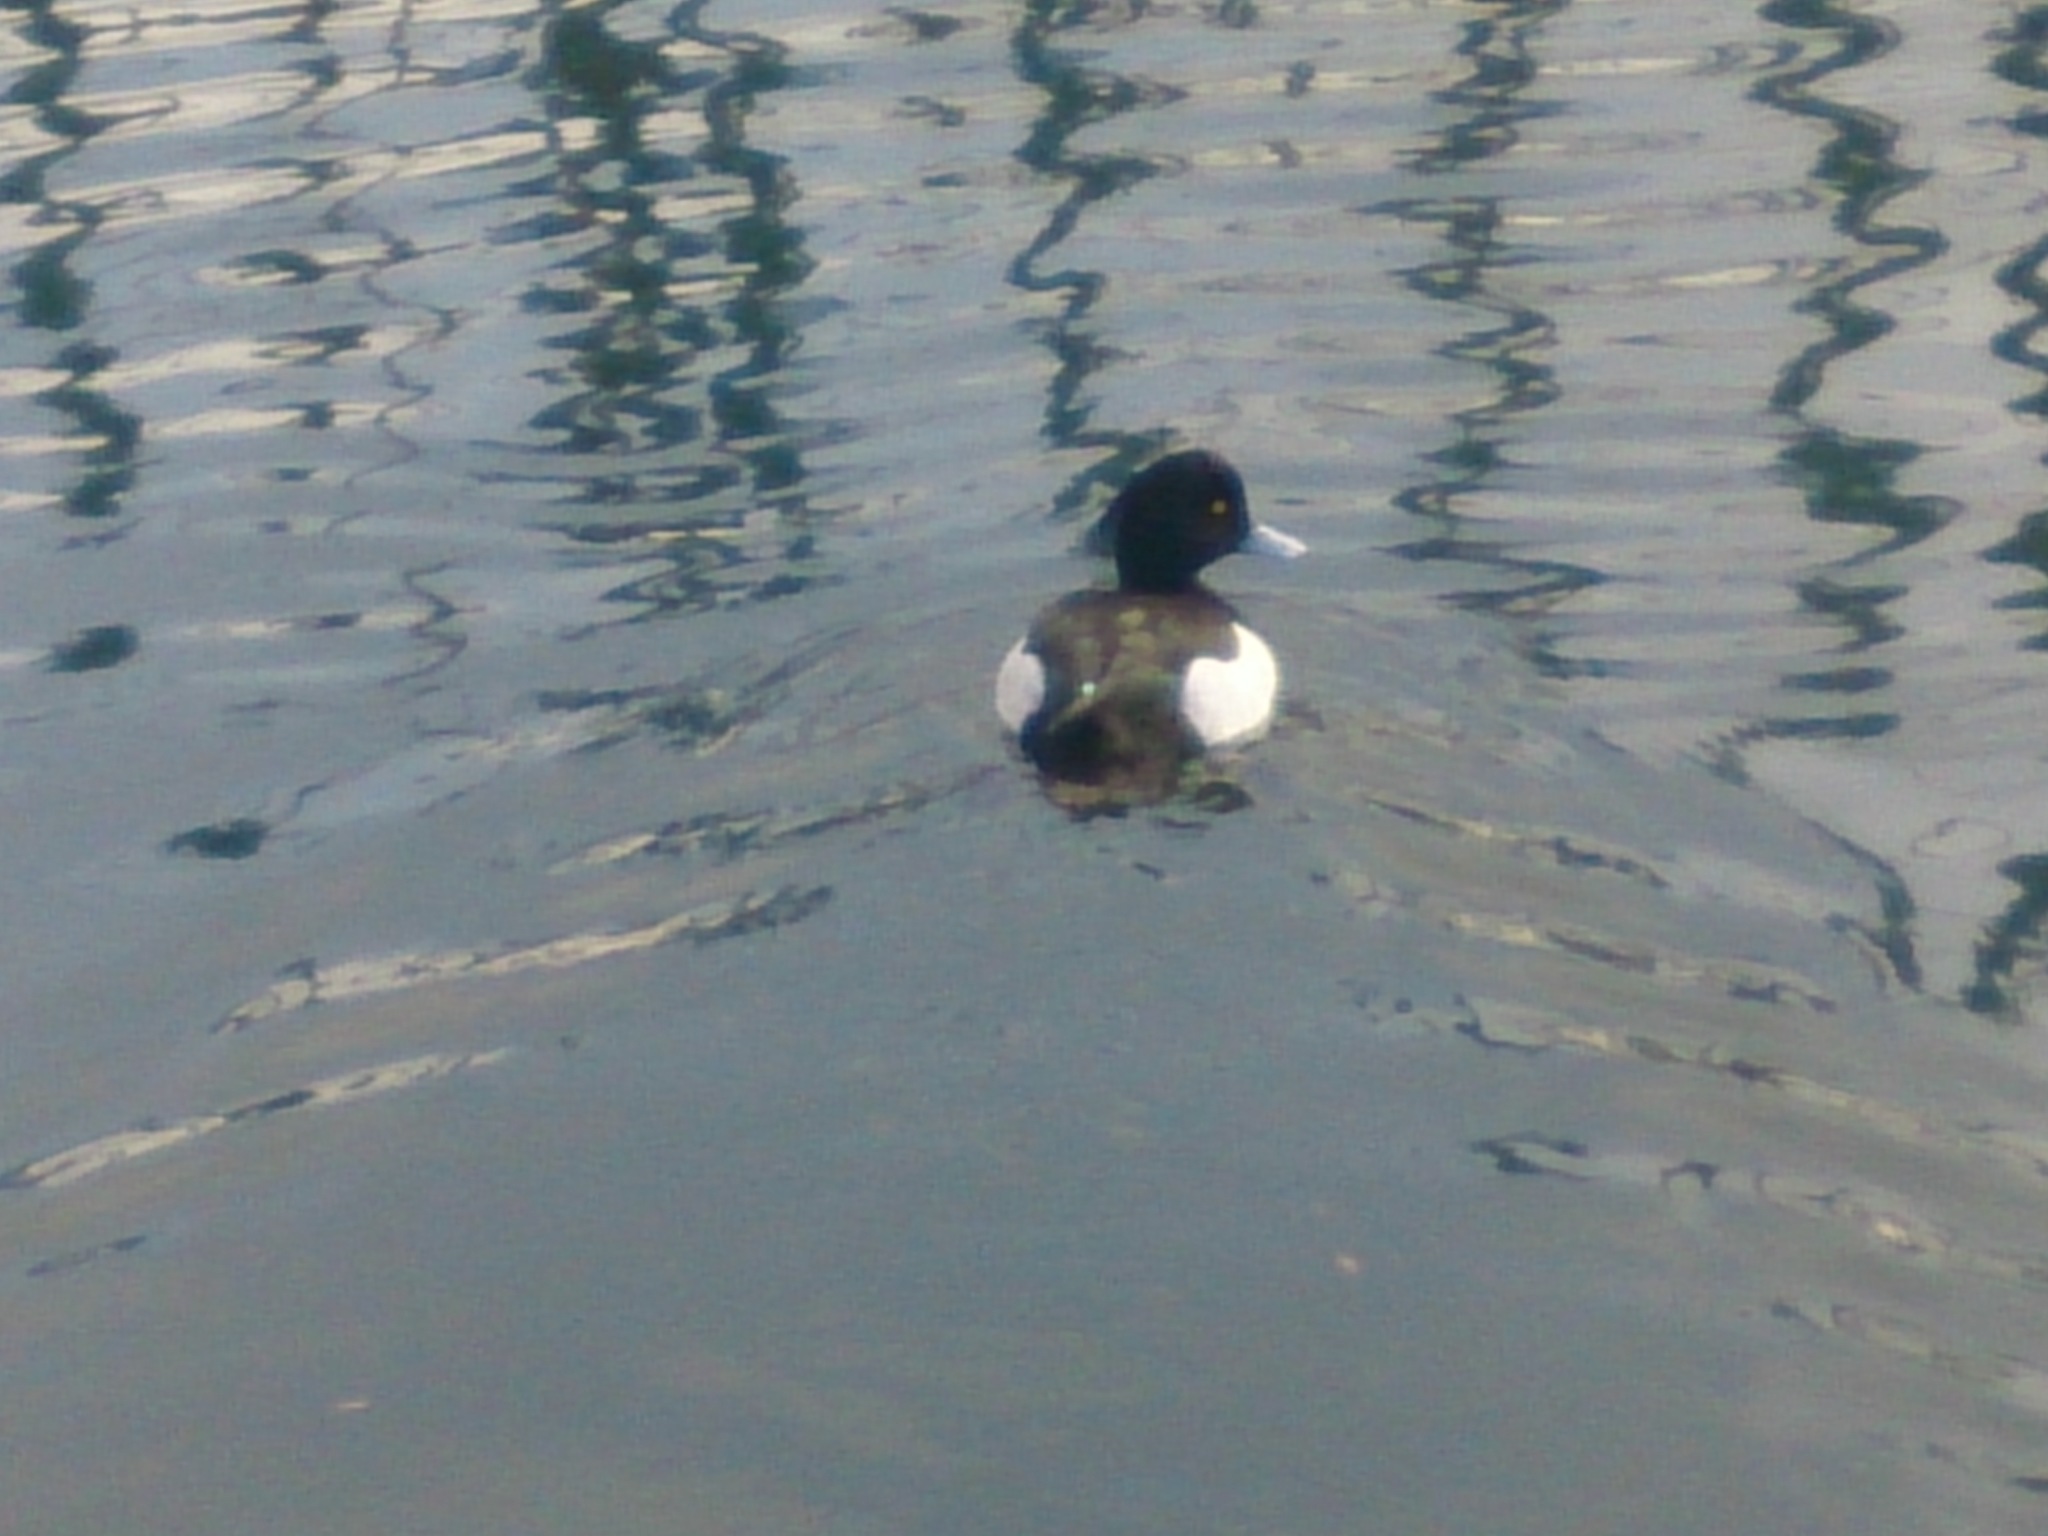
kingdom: Animalia
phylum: Chordata
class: Aves
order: Anseriformes
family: Anatidae
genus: Aythya
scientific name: Aythya fuligula
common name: Tufted duck
